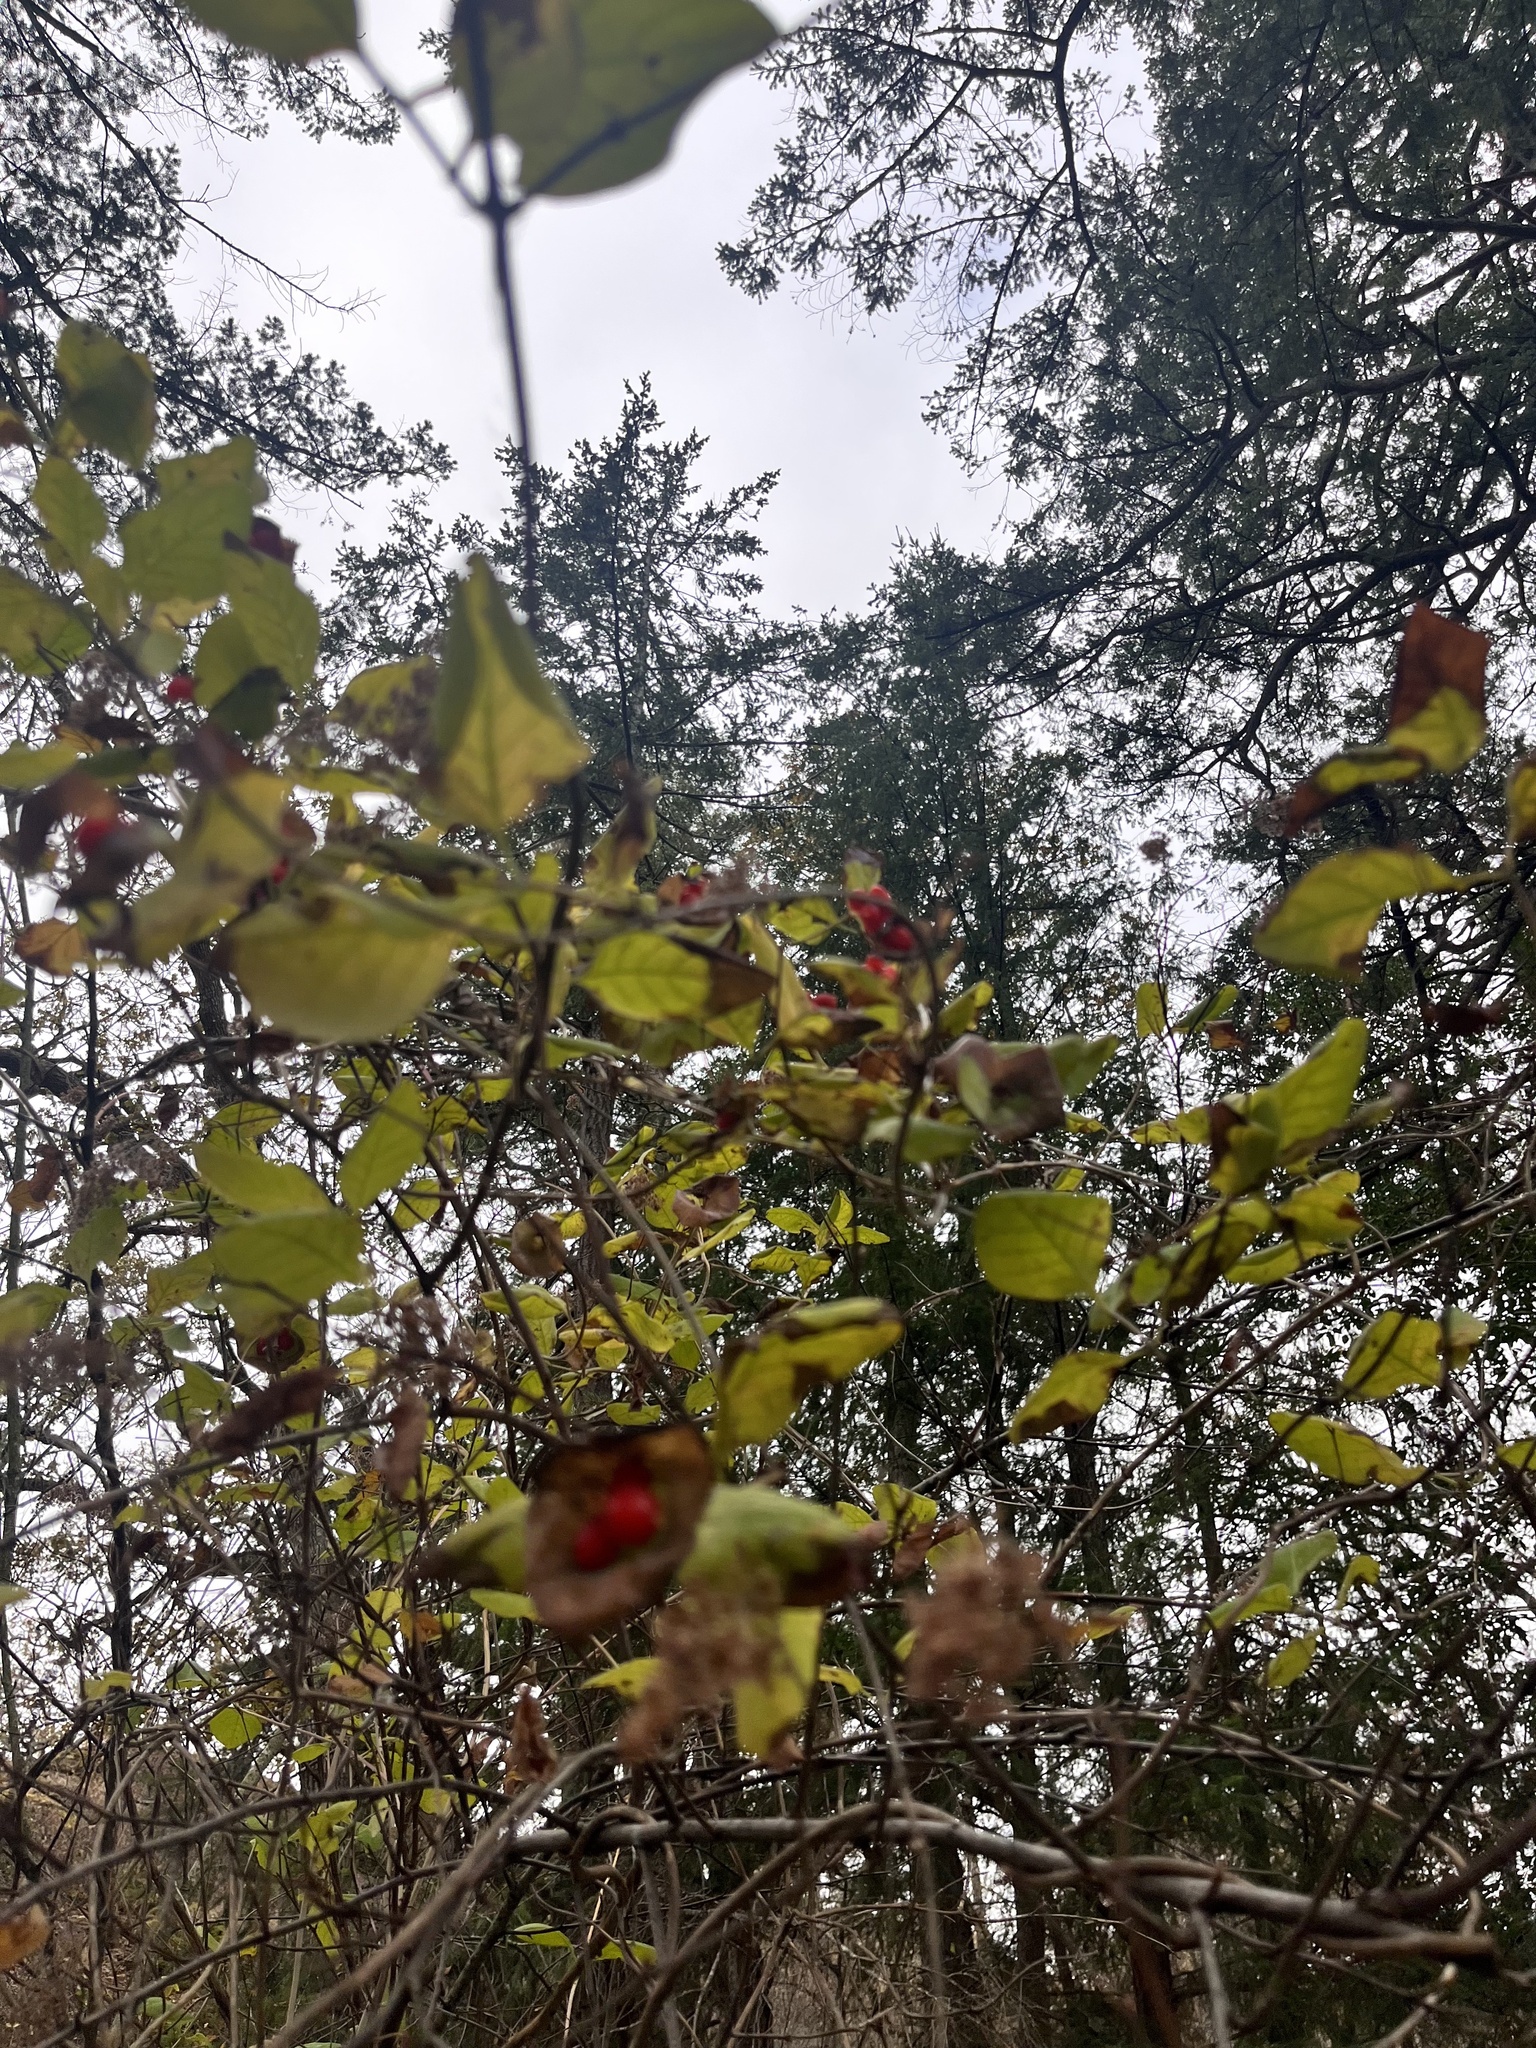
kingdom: Plantae
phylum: Tracheophyta
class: Magnoliopsida
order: Dipsacales
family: Caprifoliaceae
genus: Lonicera
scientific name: Lonicera ciliosa
